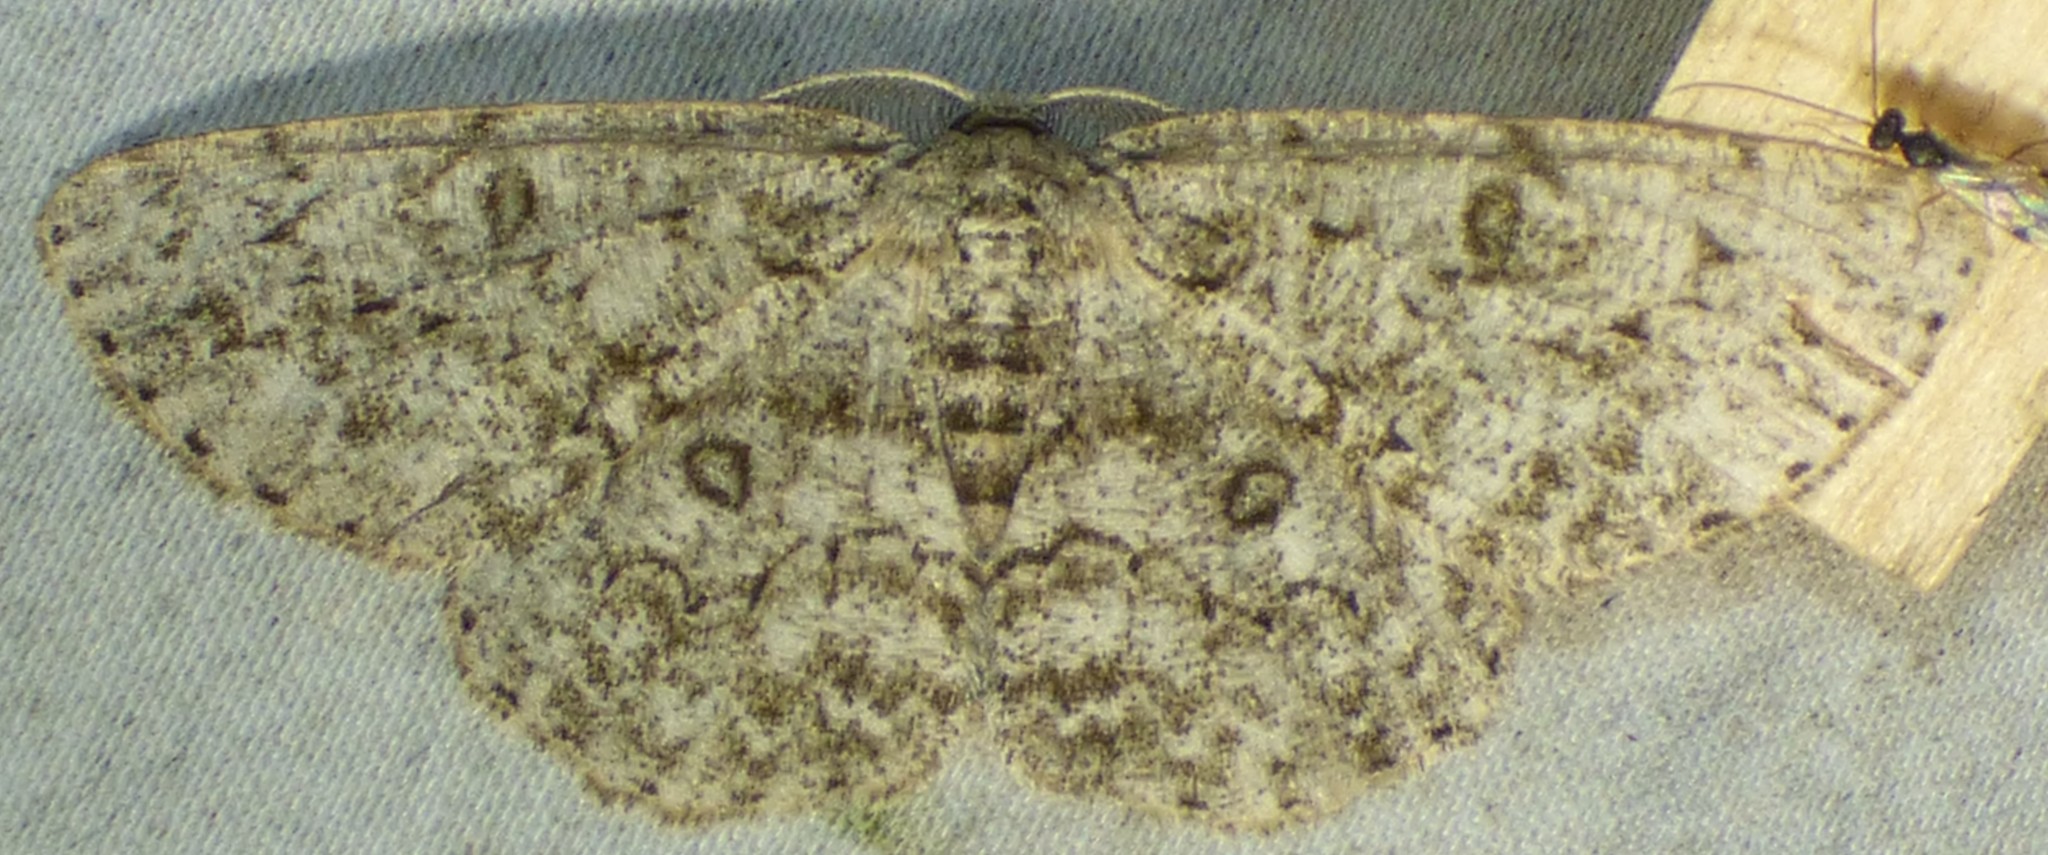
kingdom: Animalia
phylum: Arthropoda
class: Insecta
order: Lepidoptera
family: Geometridae
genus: Hypomecis
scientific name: Hypomecis umbrosaria
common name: Umber moth
